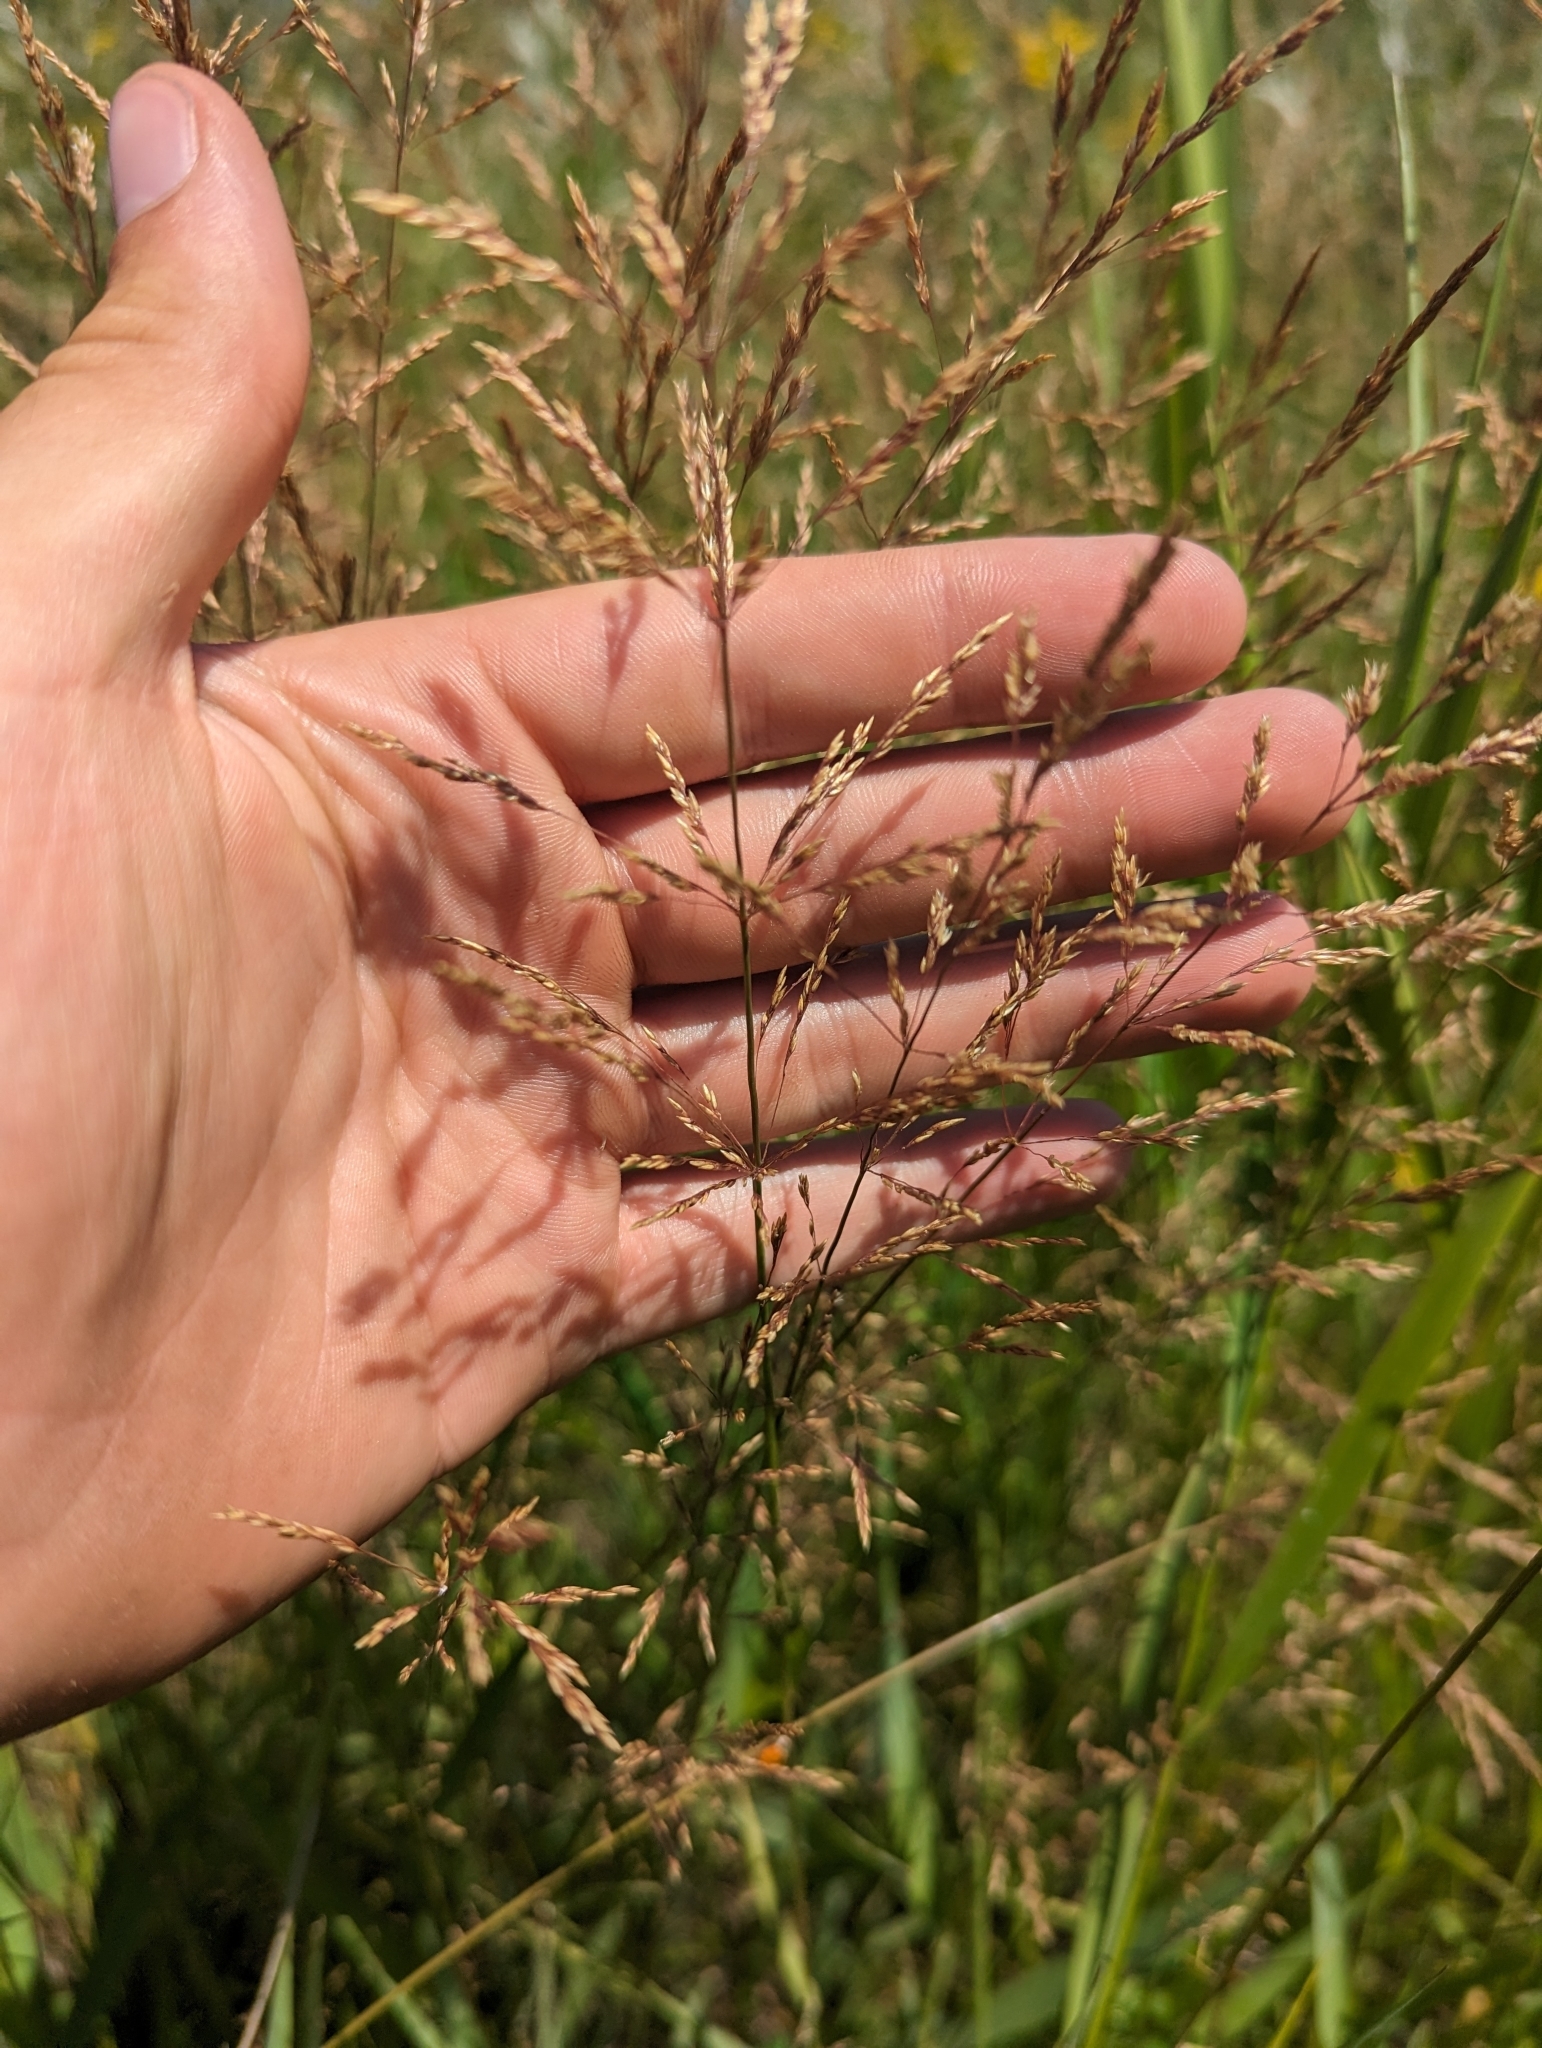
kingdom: Plantae
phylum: Tracheophyta
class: Liliopsida
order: Poales
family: Poaceae
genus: Agrostis
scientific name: Agrostis stolonifera
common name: Creeping bentgrass
